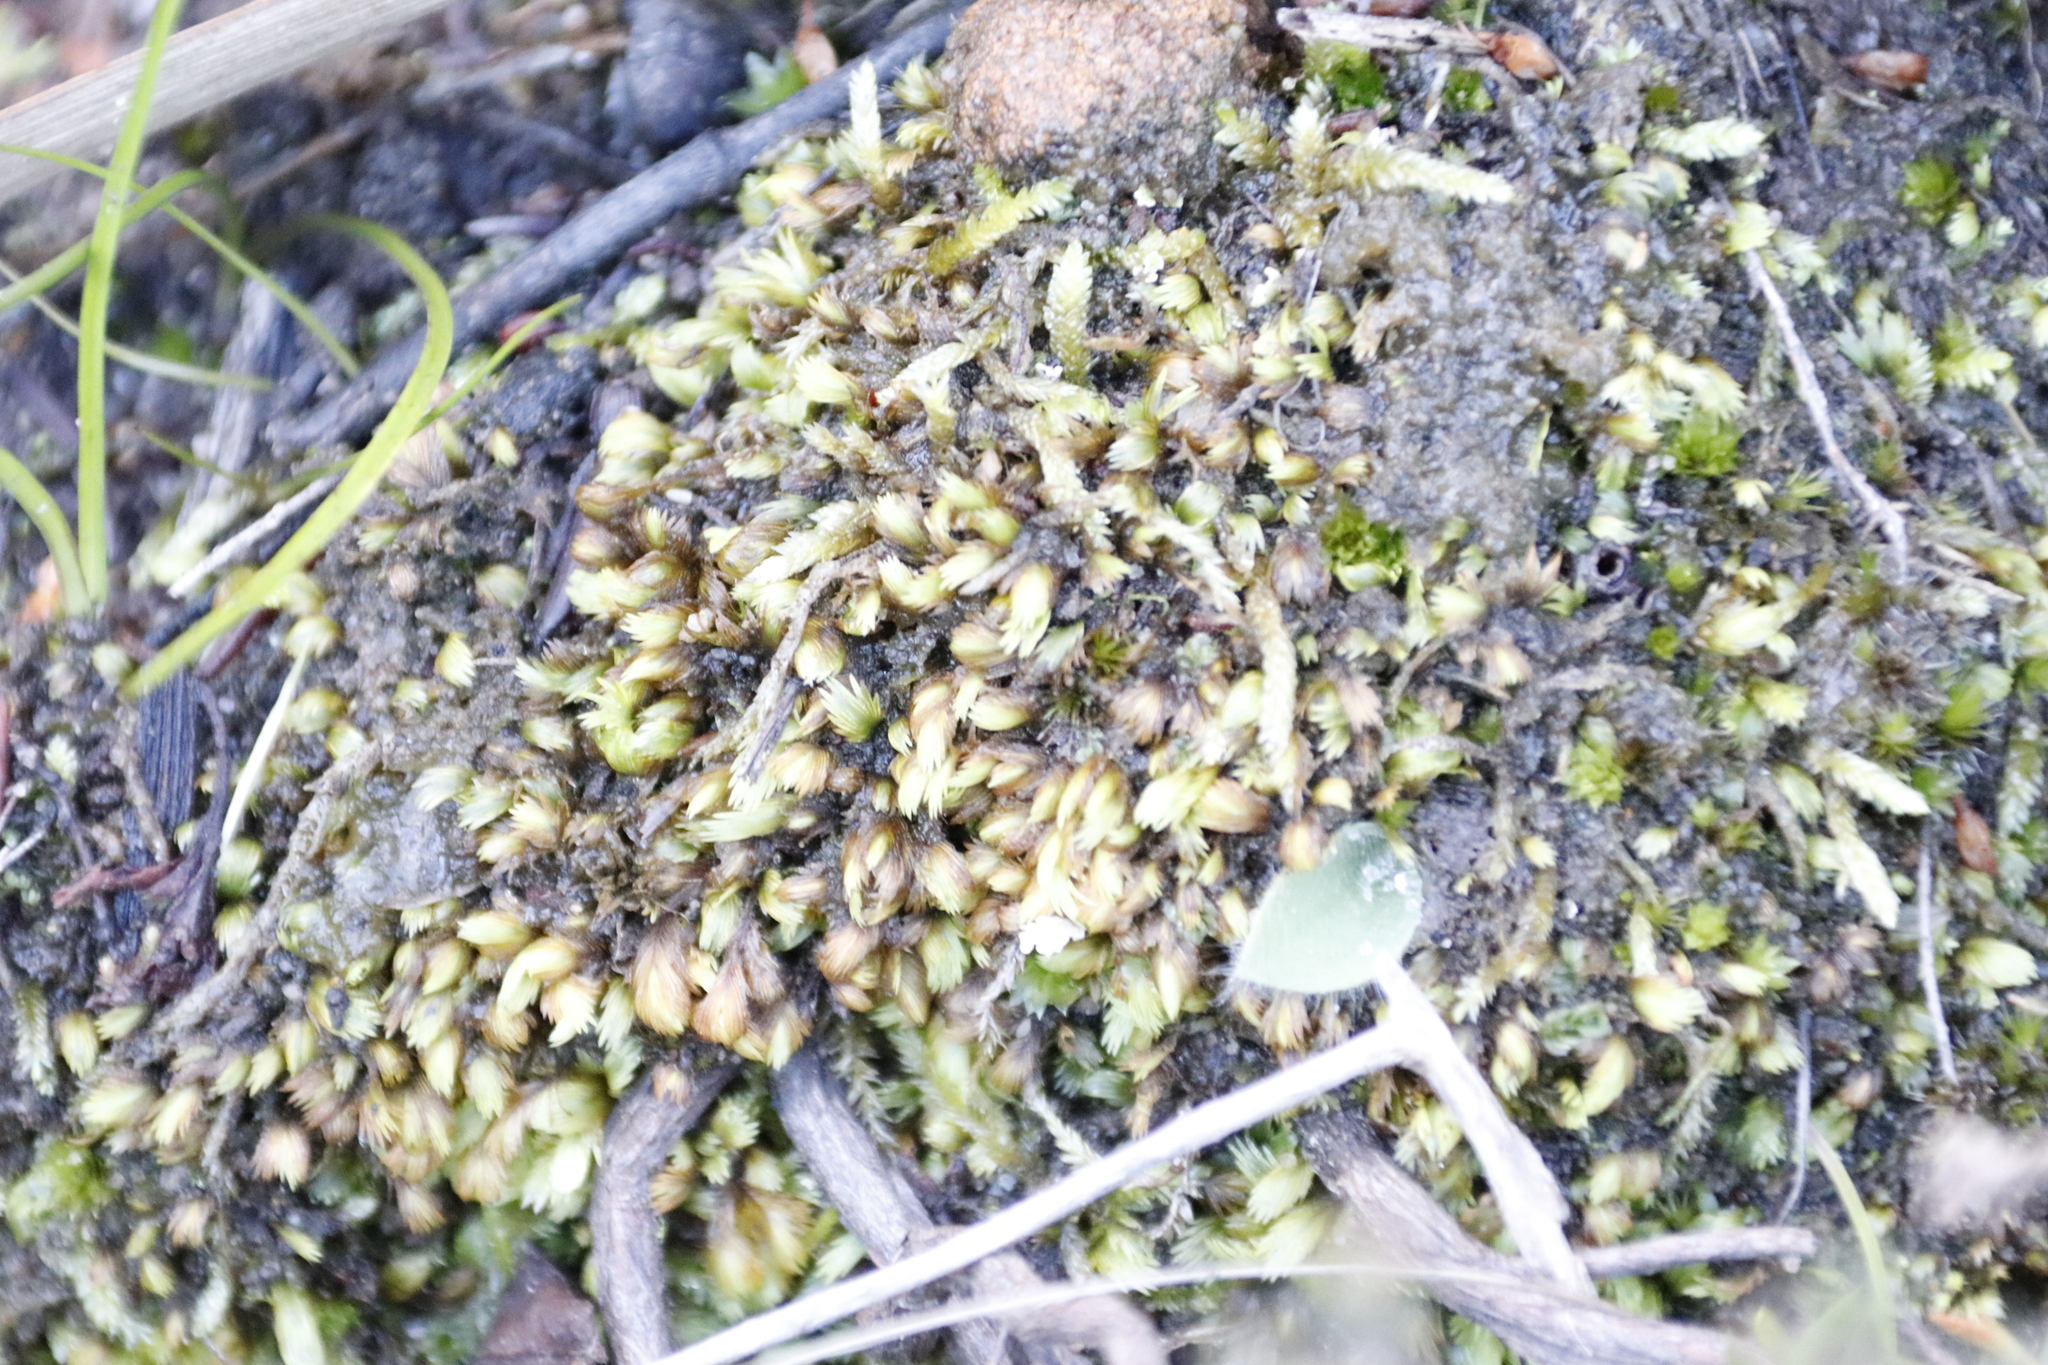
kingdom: Plantae
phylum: Bryophyta
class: Bryopsida
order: Dicranales
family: Fissidentaceae
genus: Fissidens
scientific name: Fissidens ovatus
